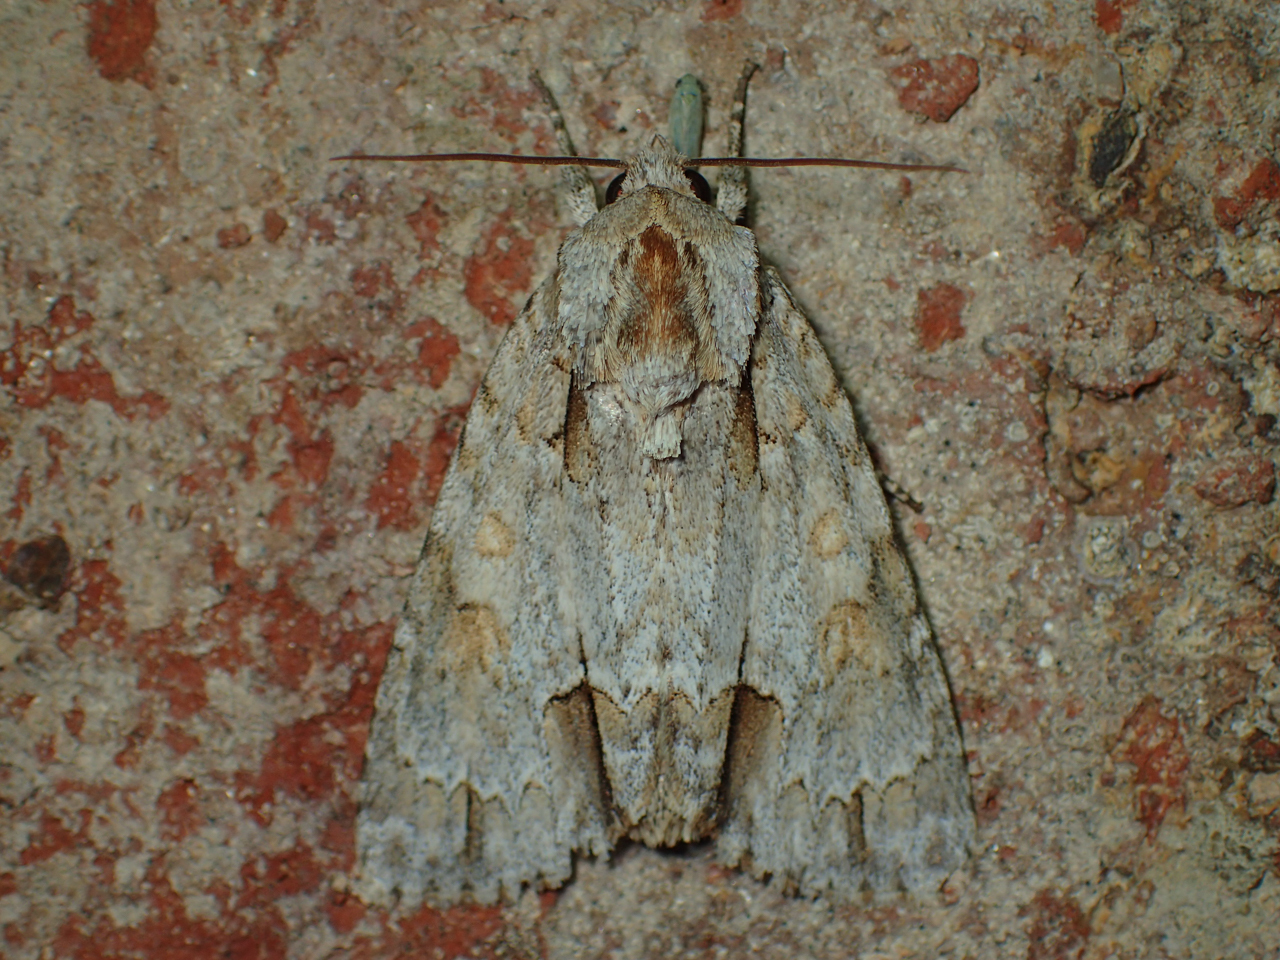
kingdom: Animalia
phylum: Arthropoda
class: Insecta
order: Lepidoptera
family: Noctuidae
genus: Acronicta
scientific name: Acronicta morula
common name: Ochre dagger
